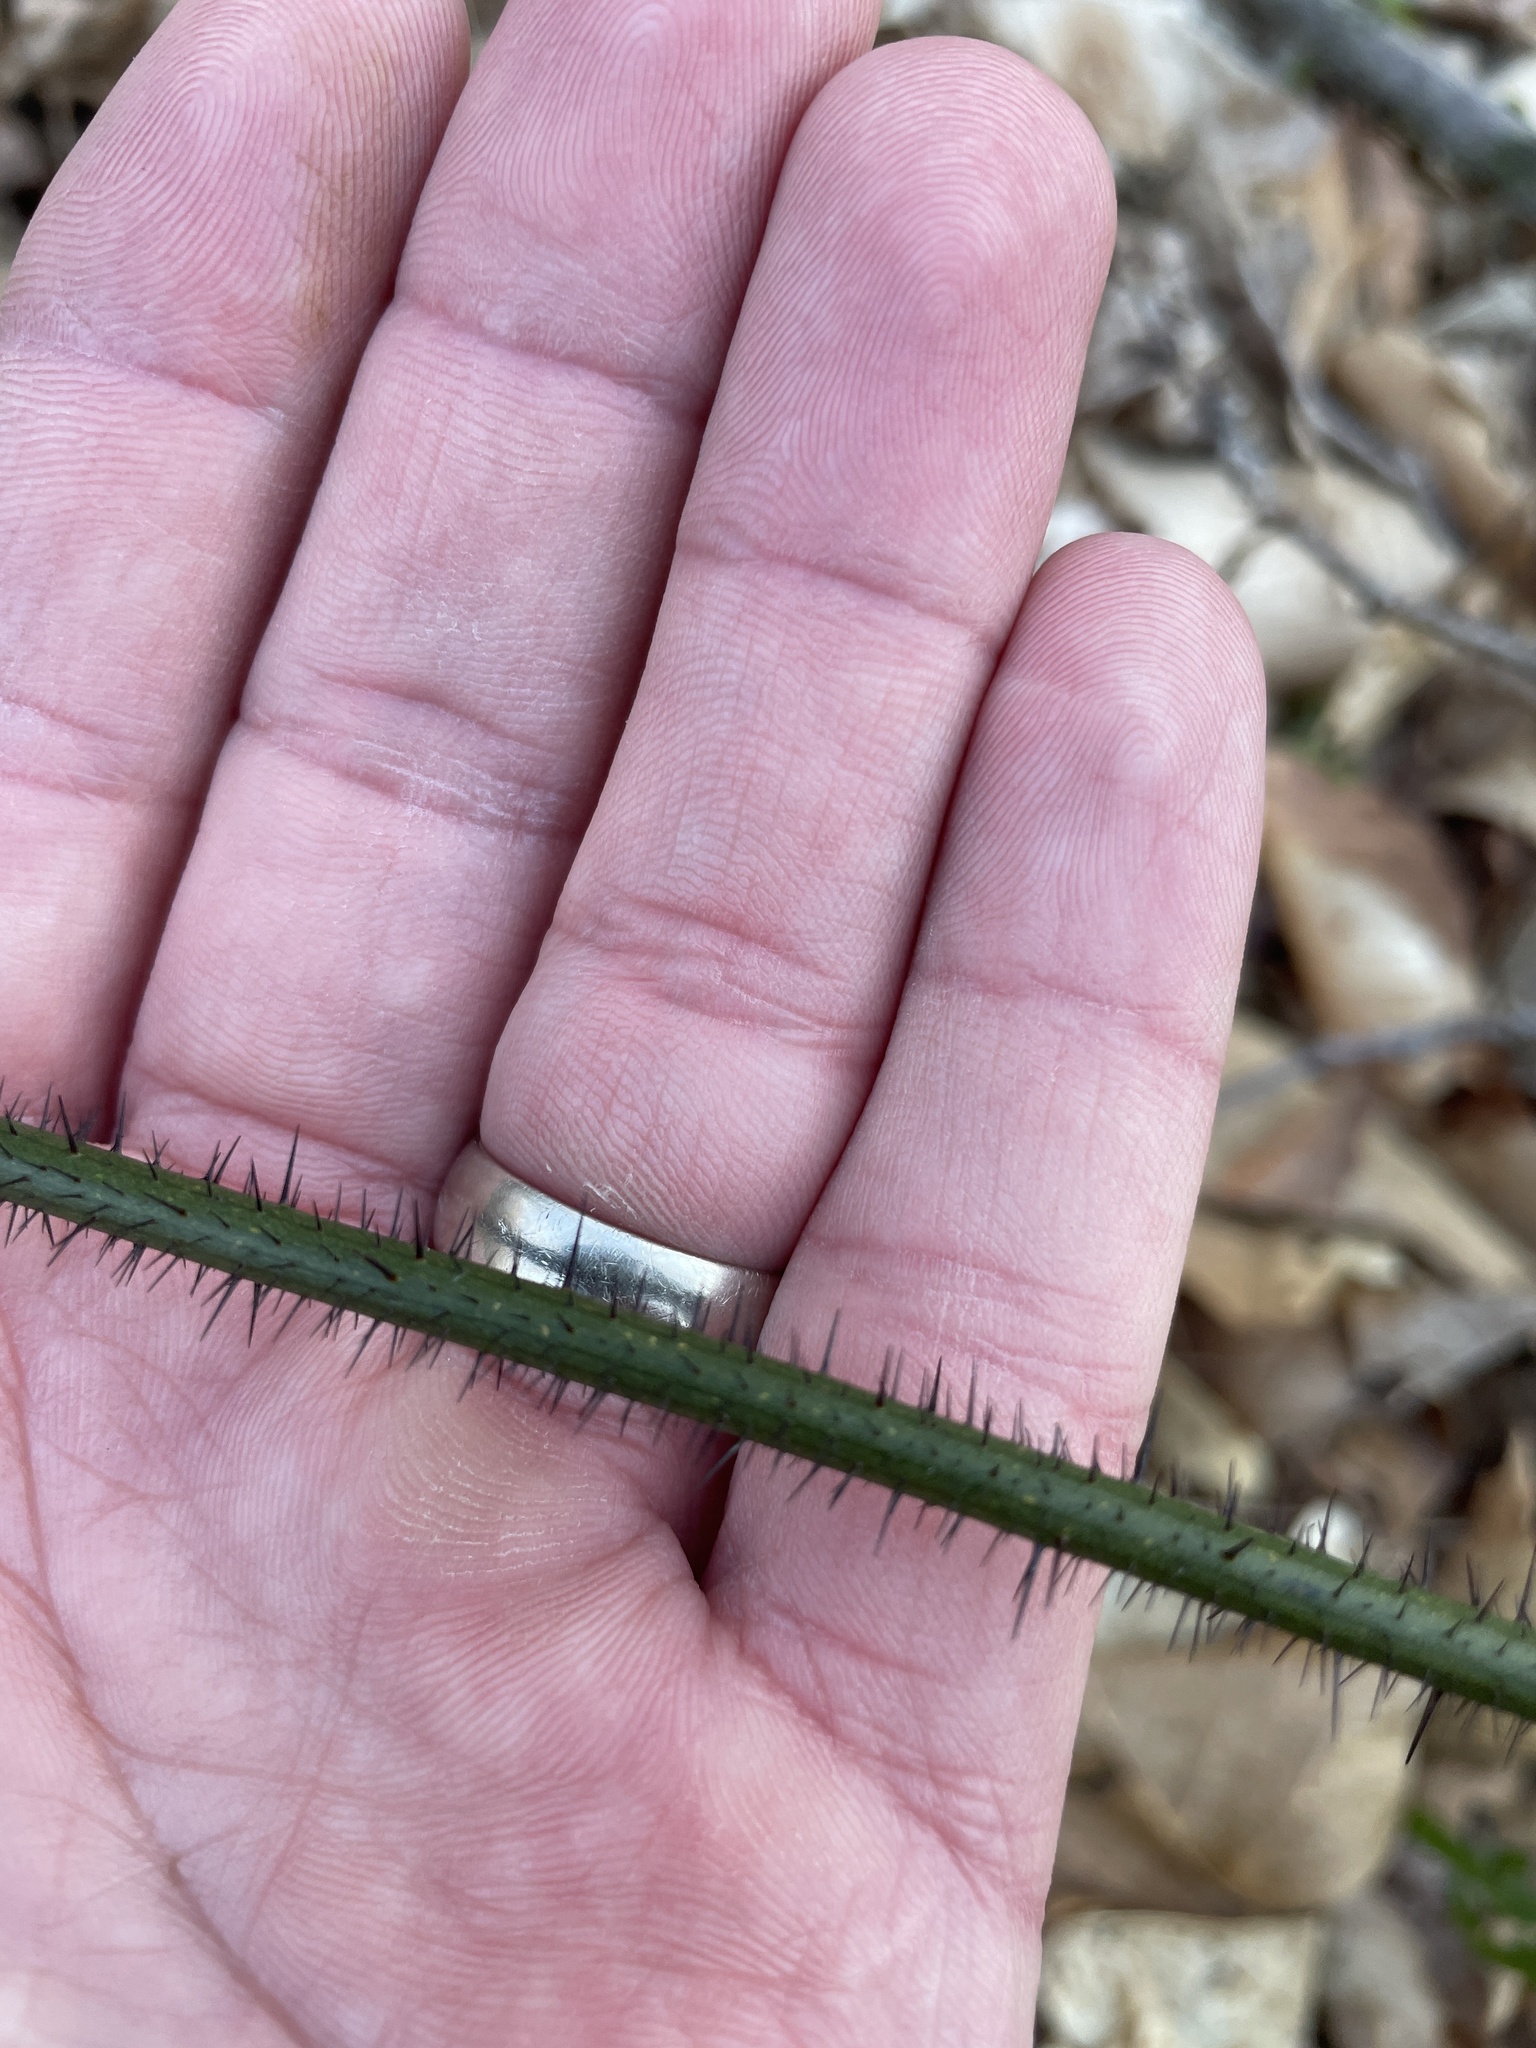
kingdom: Plantae
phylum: Tracheophyta
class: Liliopsida
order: Liliales
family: Smilacaceae
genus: Smilax
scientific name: Smilax tamnoides
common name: Hellfetter
